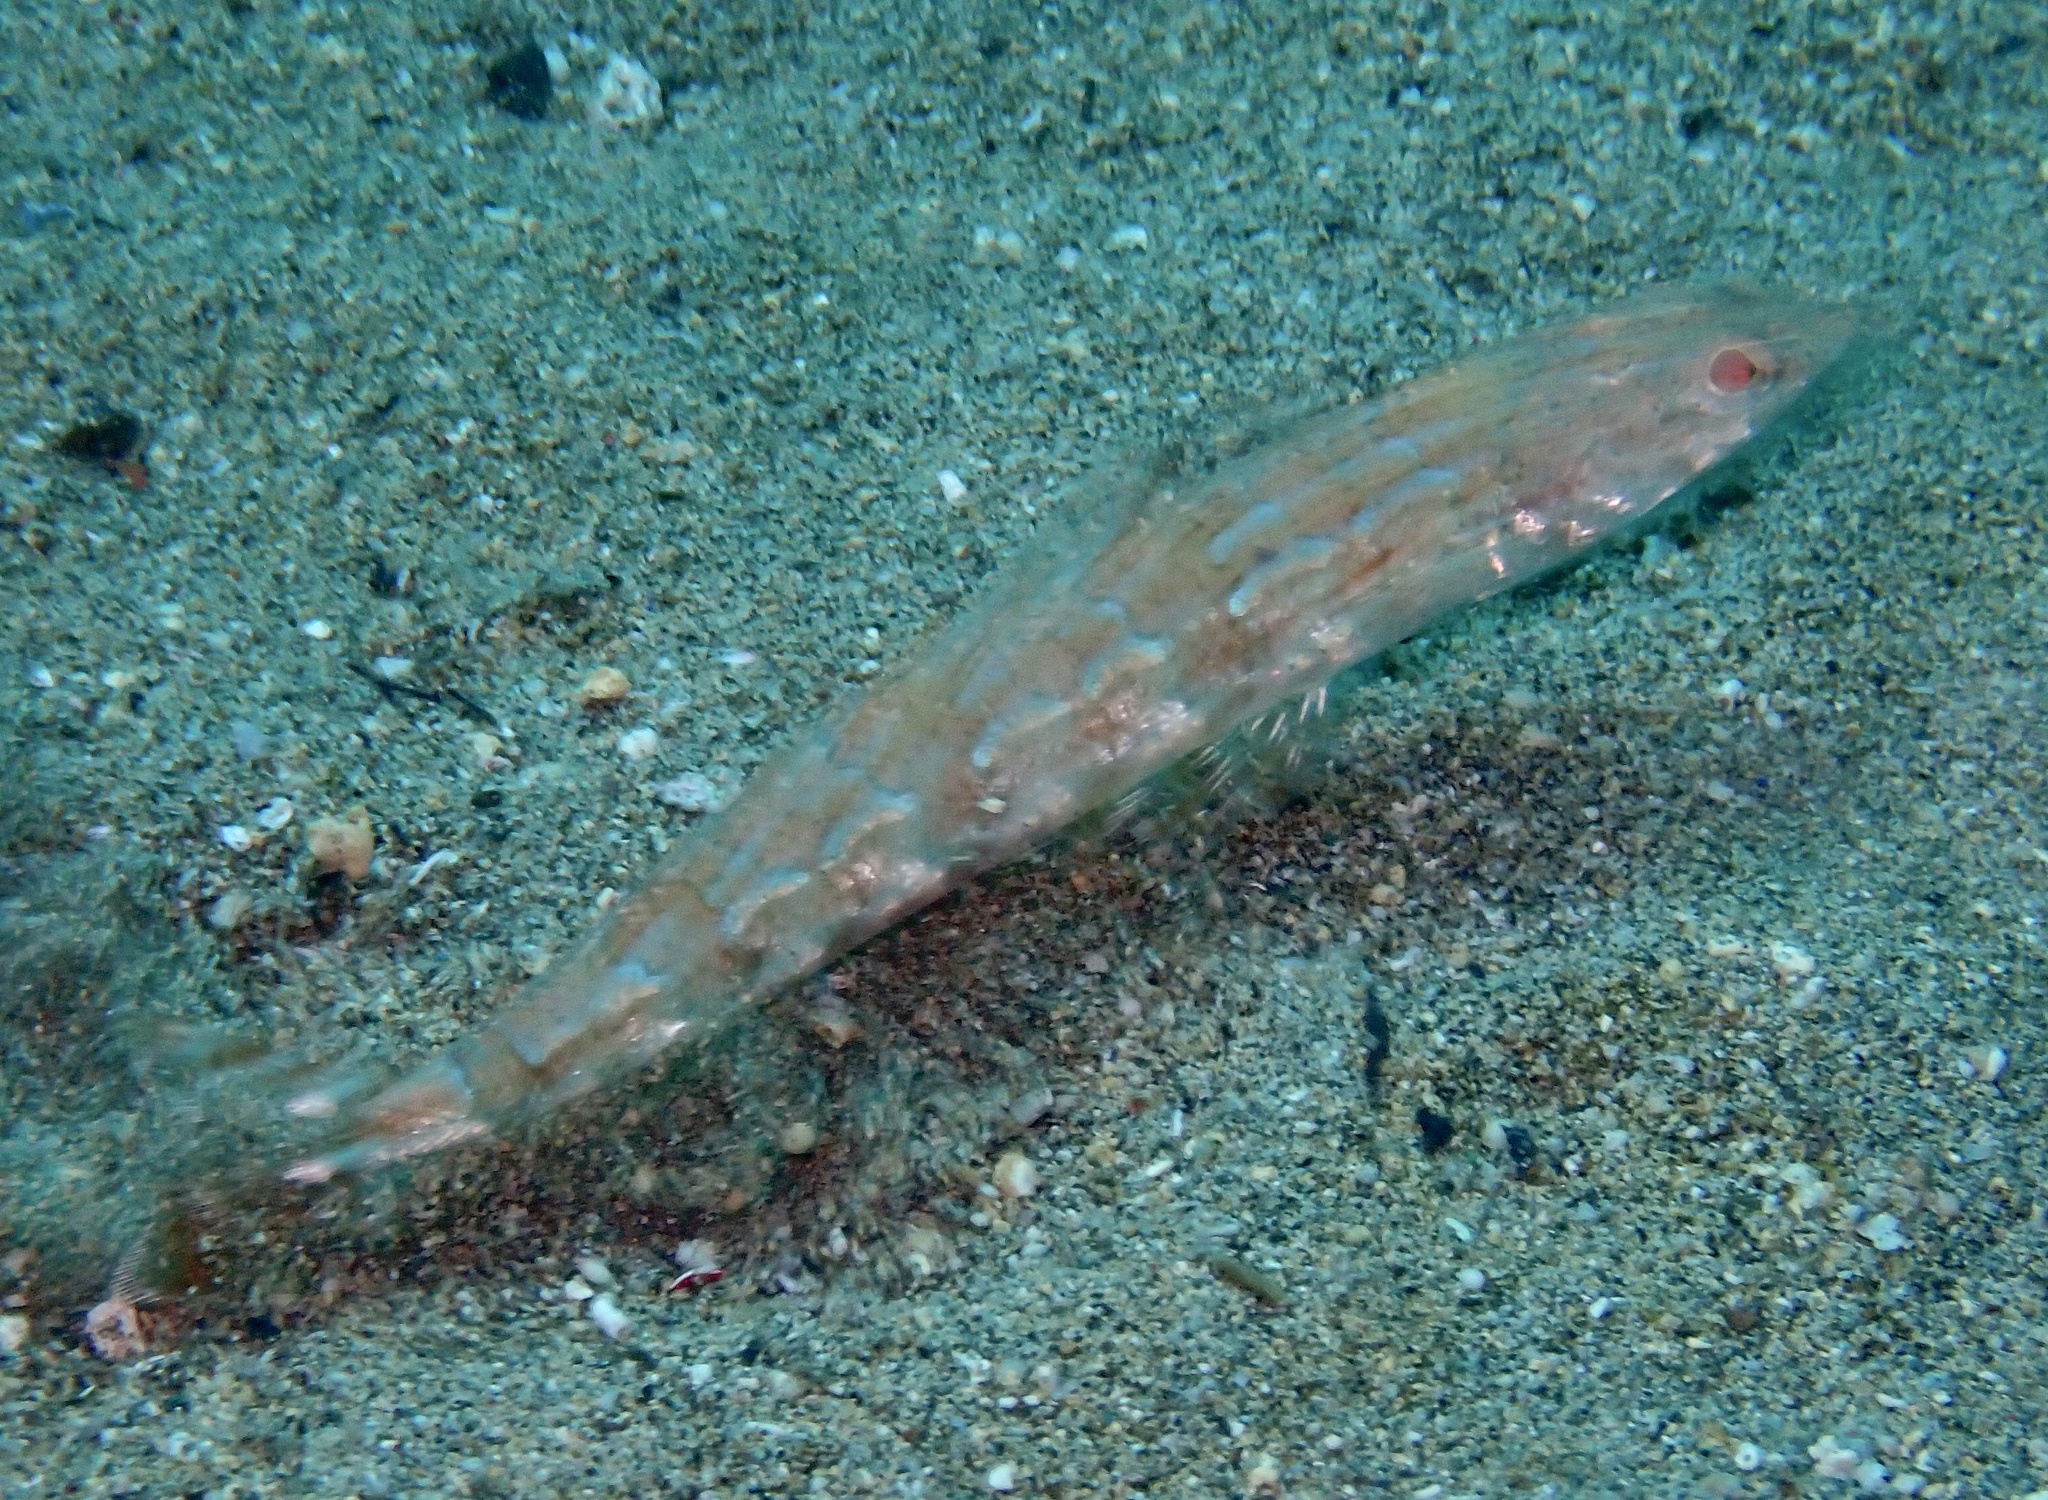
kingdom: Animalia
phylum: Chordata
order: Aulopiformes
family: Synodontidae
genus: Synodus
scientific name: Synodus synodus
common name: Red lizardfish
